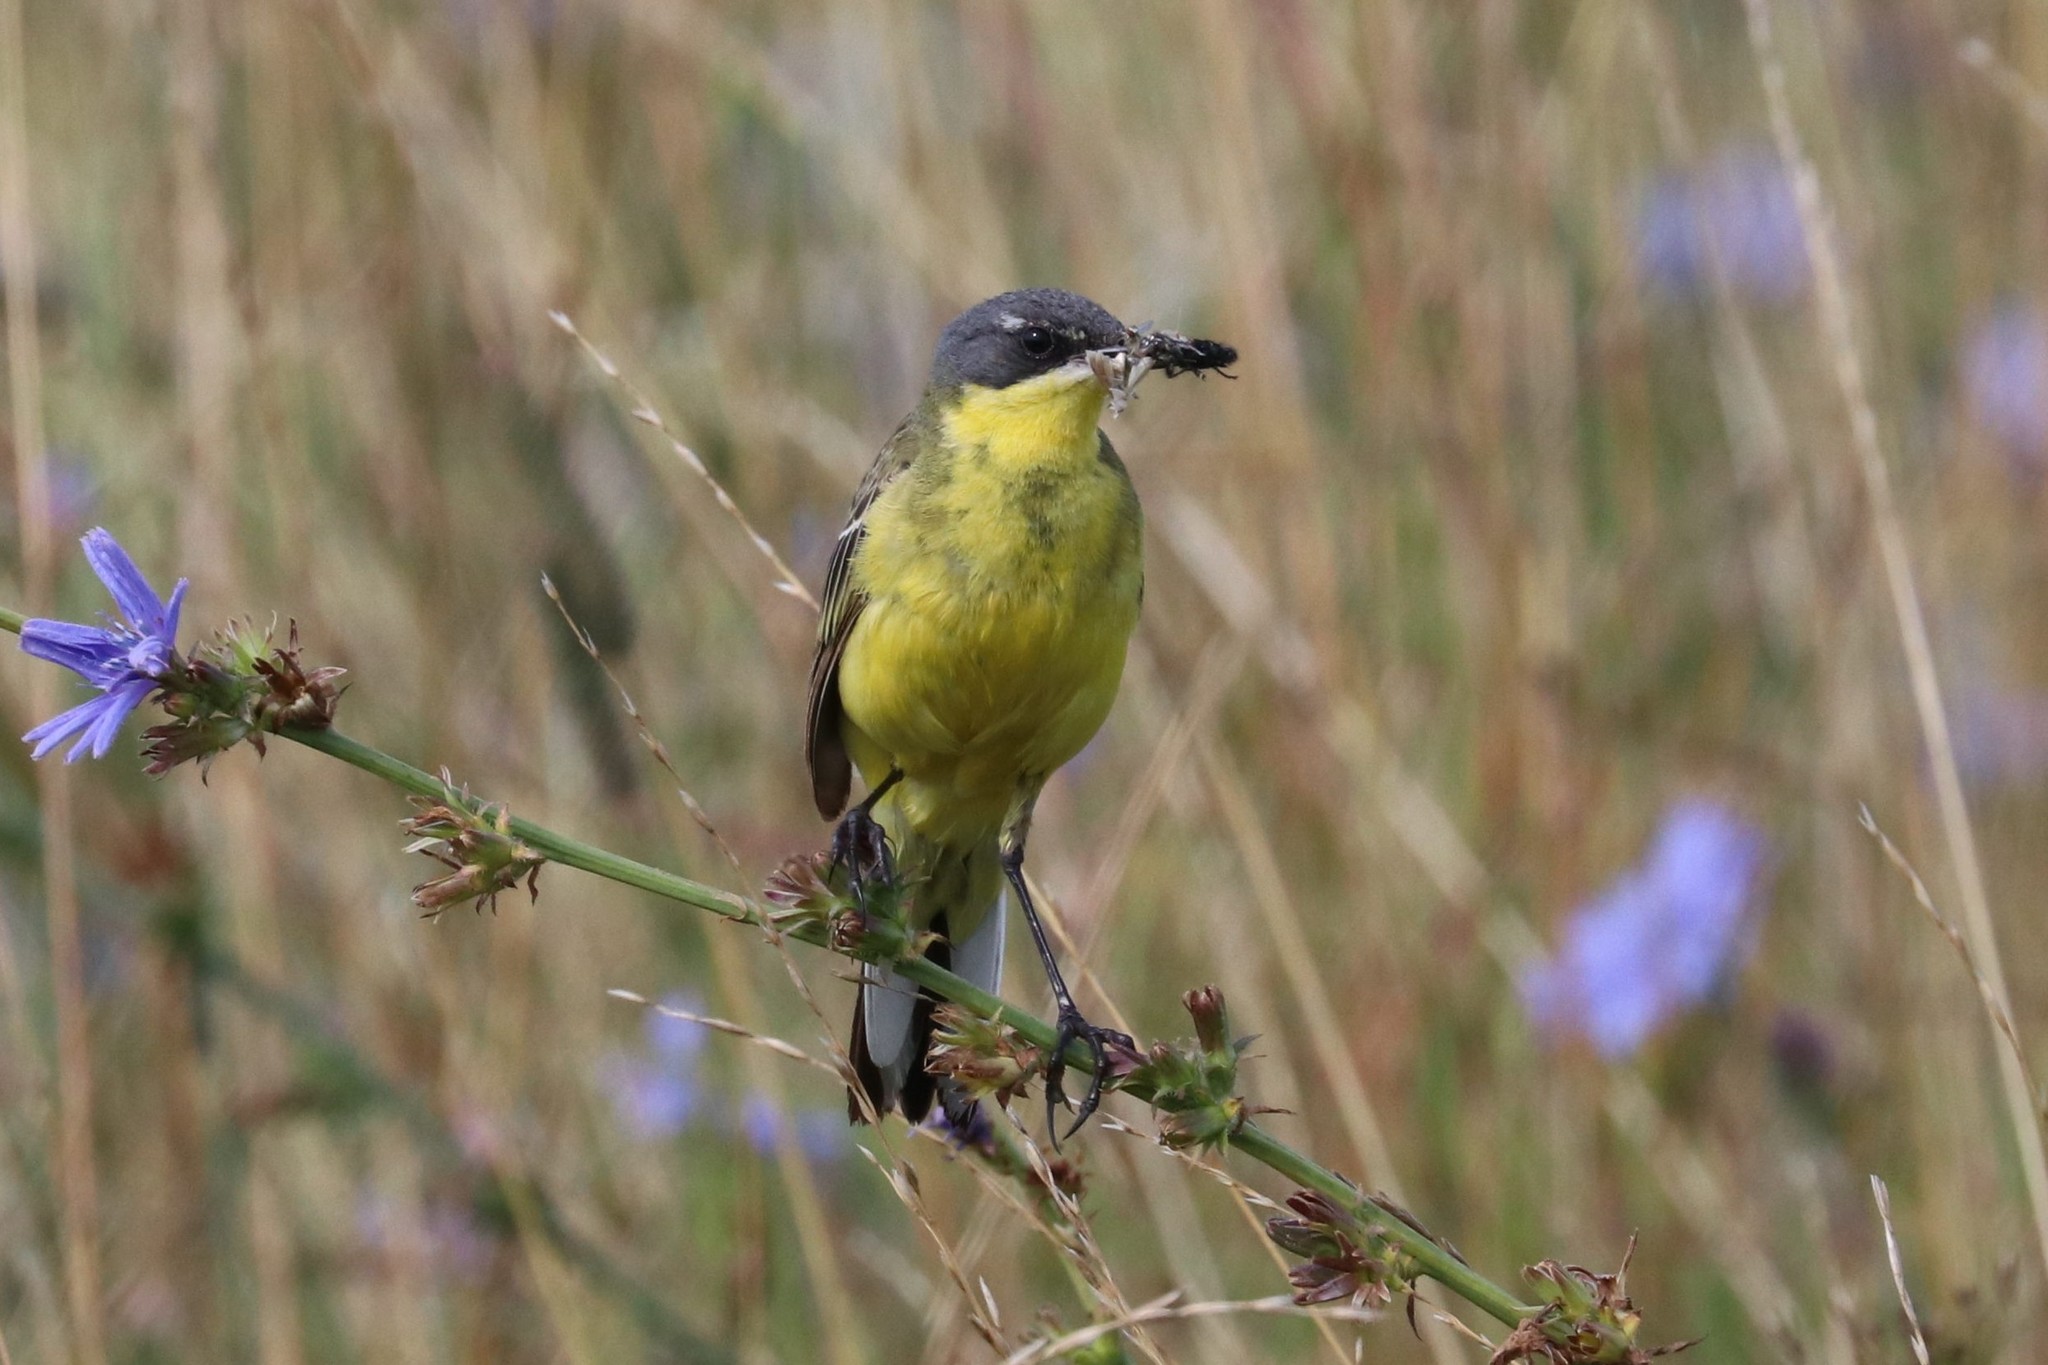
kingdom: Animalia
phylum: Chordata
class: Aves
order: Passeriformes
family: Motacillidae
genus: Motacilla
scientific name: Motacilla flava
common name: Western yellow wagtail
